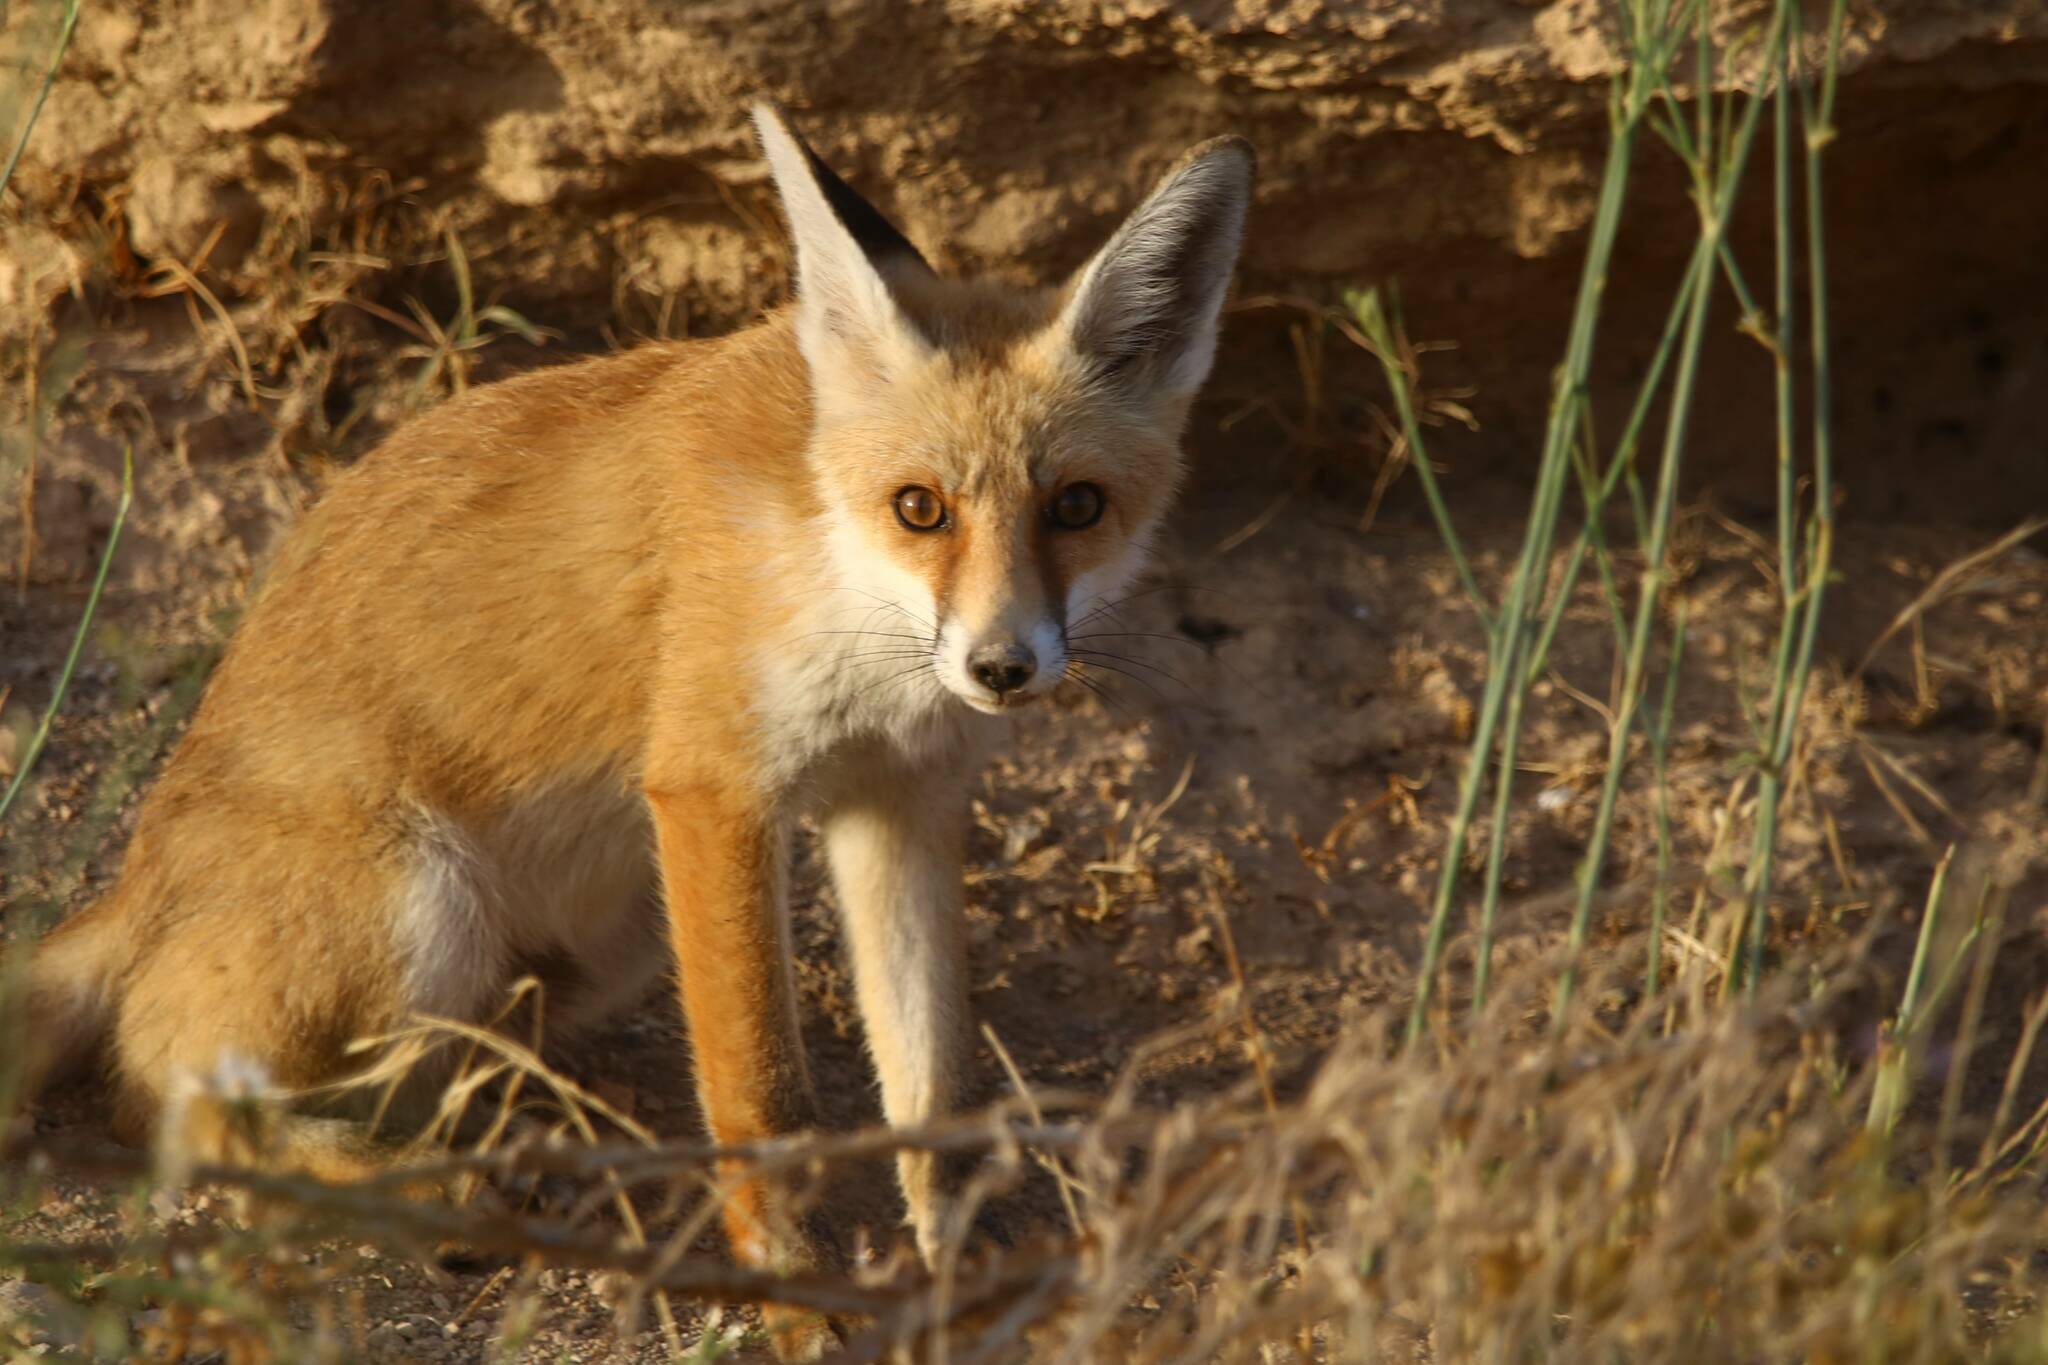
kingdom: Animalia
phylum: Chordata
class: Mammalia
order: Carnivora
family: Canidae
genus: Vulpes
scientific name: Vulpes vulpes
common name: Red fox
